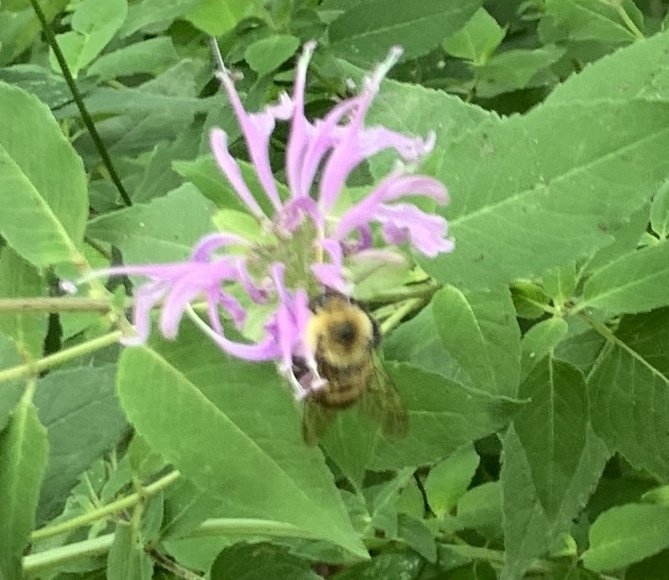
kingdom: Animalia
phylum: Arthropoda
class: Insecta
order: Hymenoptera
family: Apidae
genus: Bombus
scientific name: Bombus bimaculatus
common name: Two-spotted bumble bee
